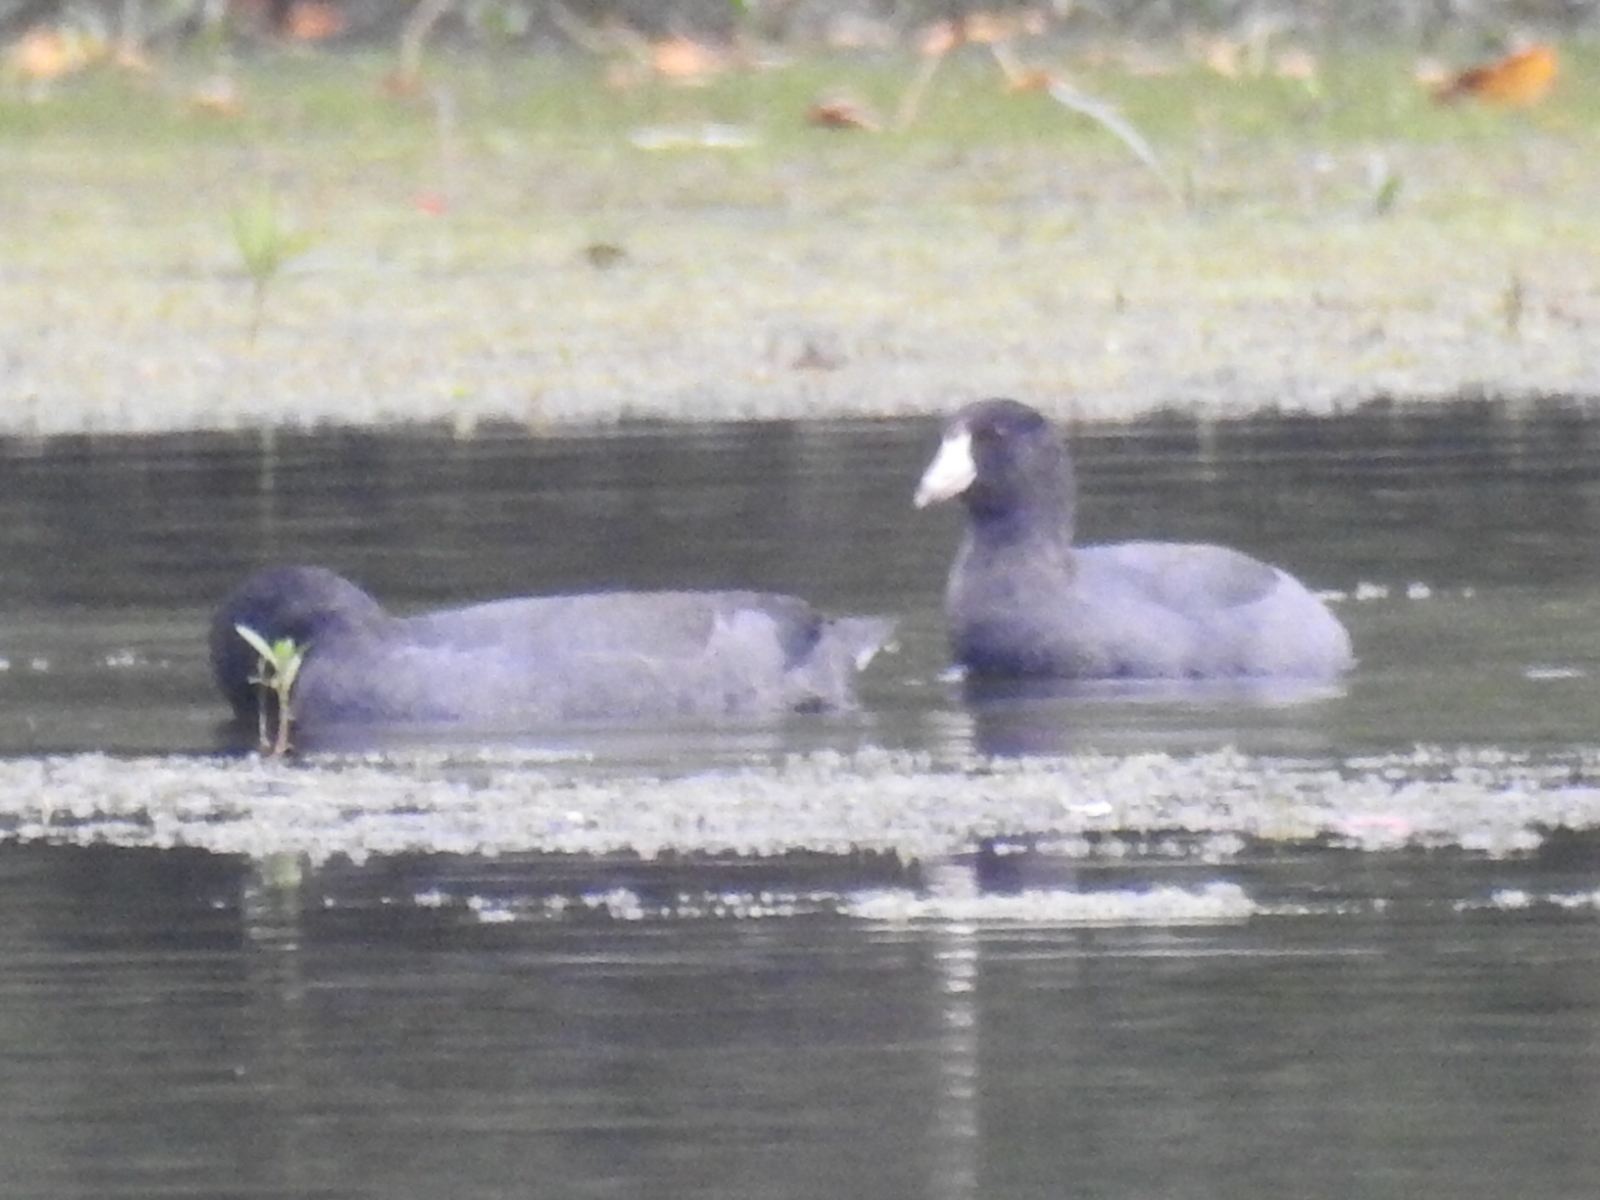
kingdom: Animalia
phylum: Chordata
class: Aves
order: Gruiformes
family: Rallidae
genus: Fulica
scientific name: Fulica americana
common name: American coot
